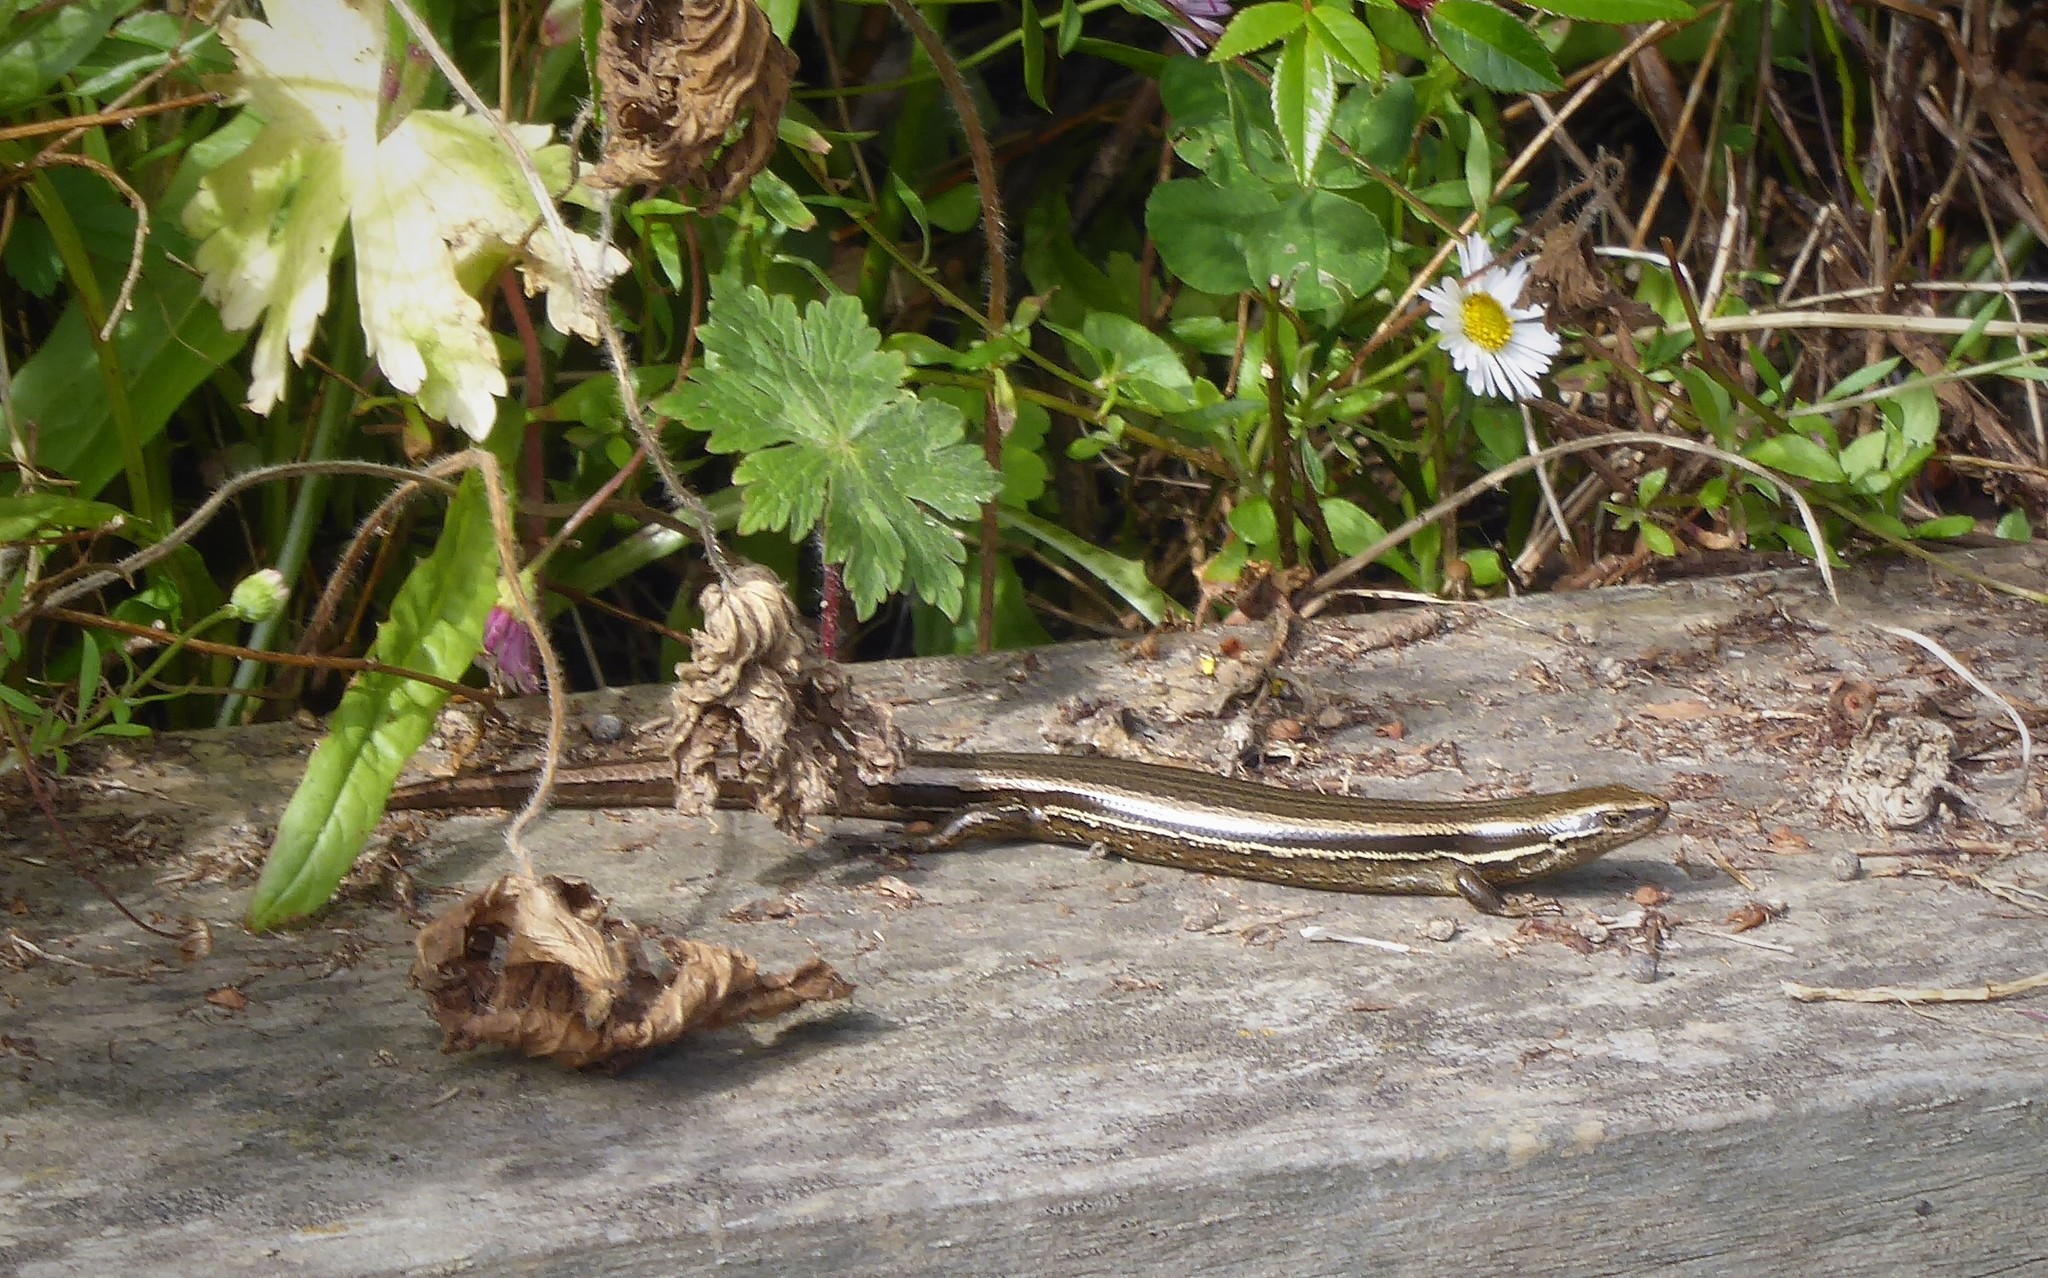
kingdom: Animalia
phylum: Chordata
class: Squamata
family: Scincidae
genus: Oligosoma
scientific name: Oligosoma polychroma
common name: Common new zealand skink
